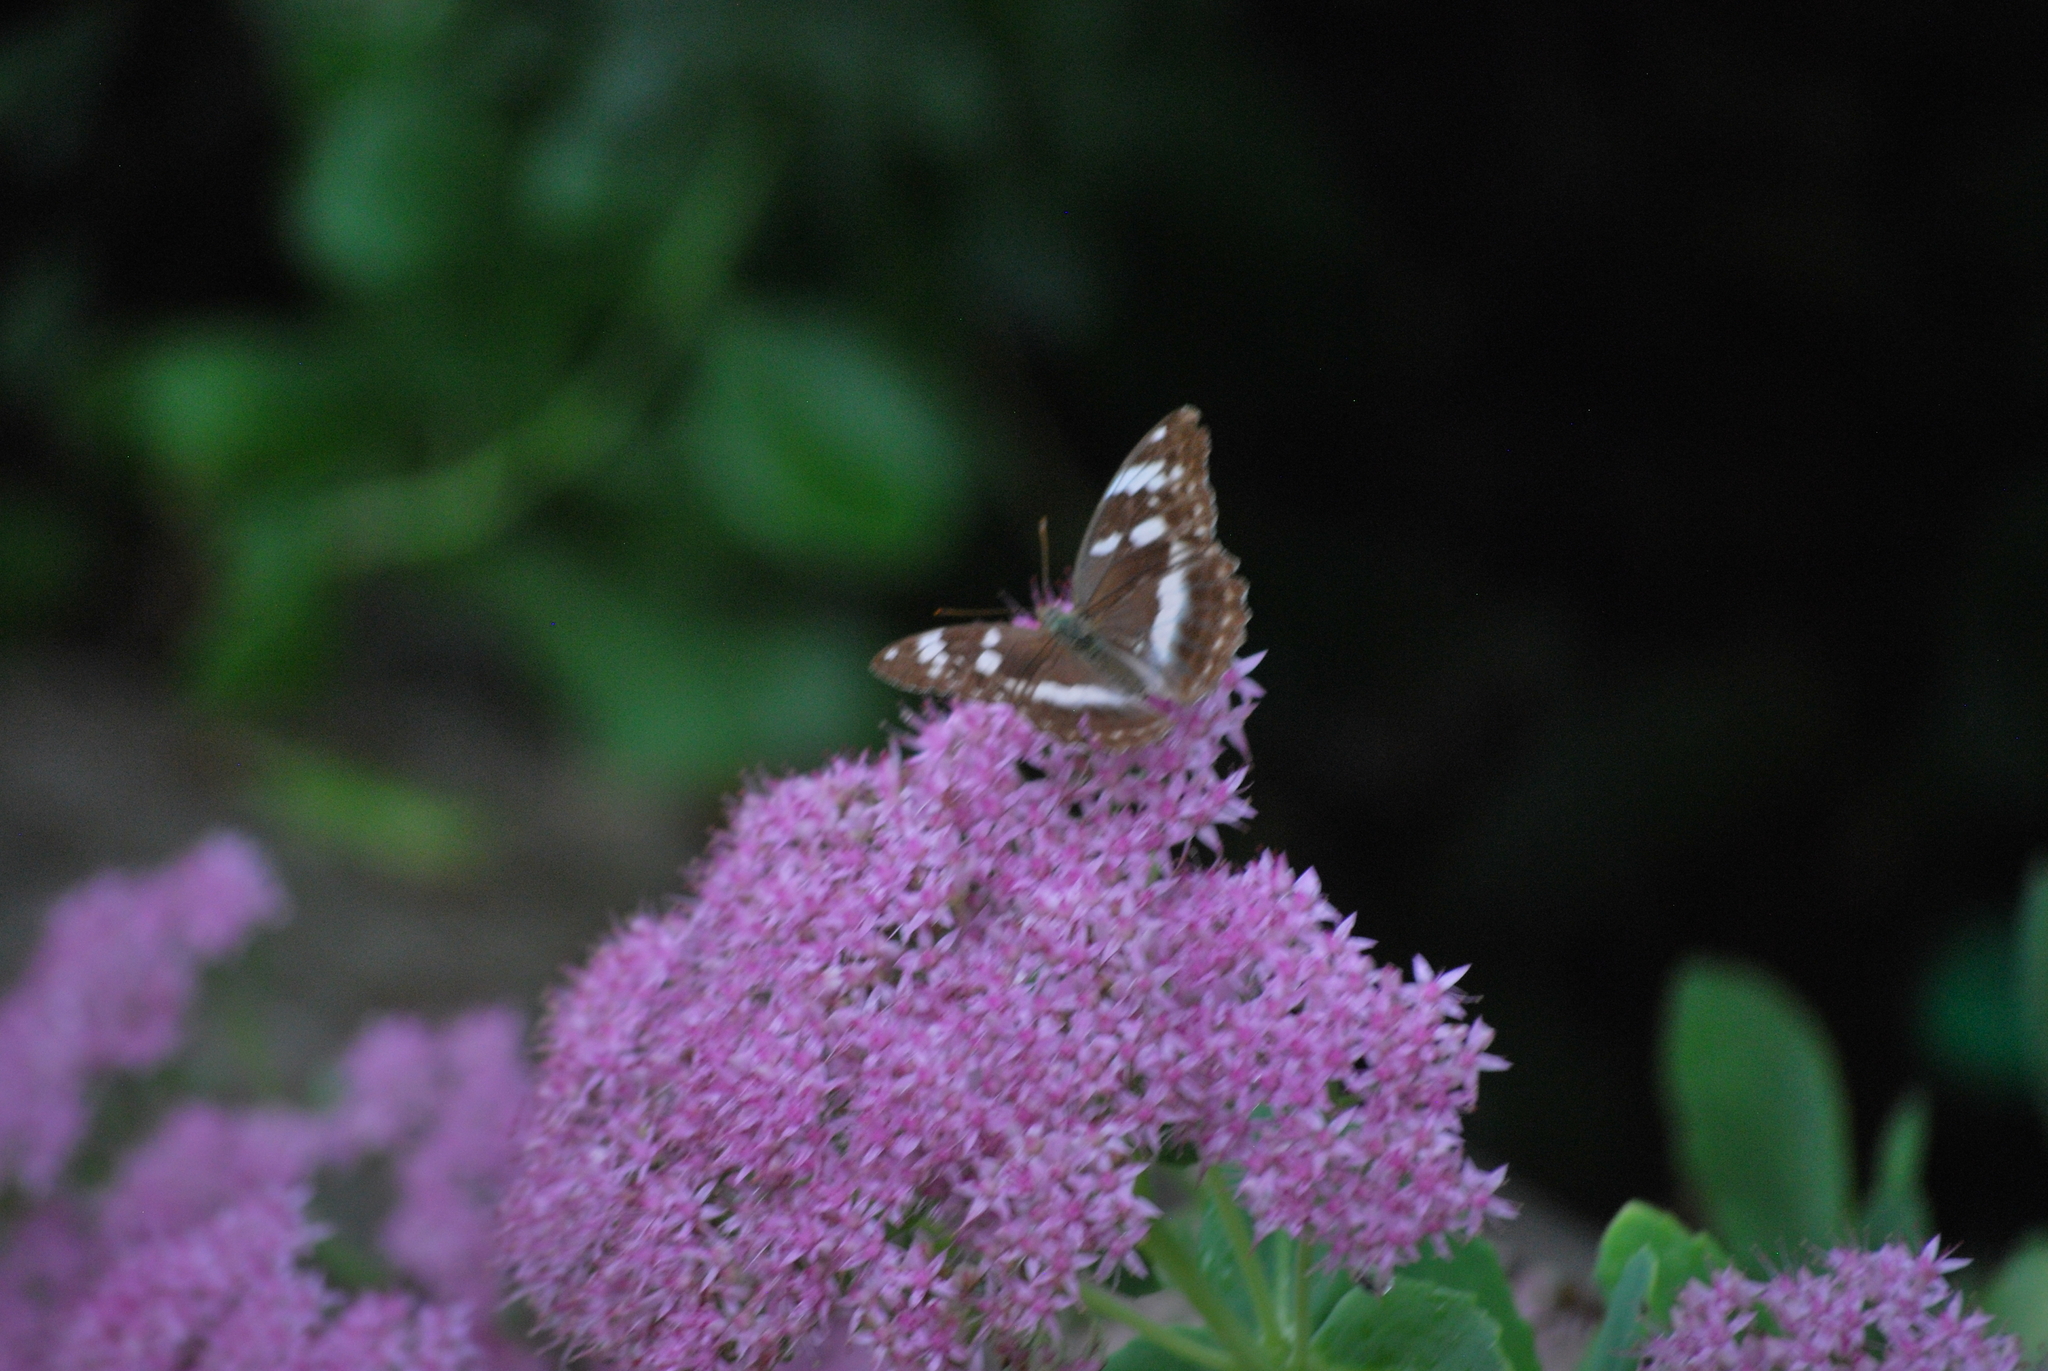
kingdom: Animalia
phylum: Arthropoda
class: Insecta
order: Lepidoptera
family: Nymphalidae
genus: Damora
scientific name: Damora sagana
